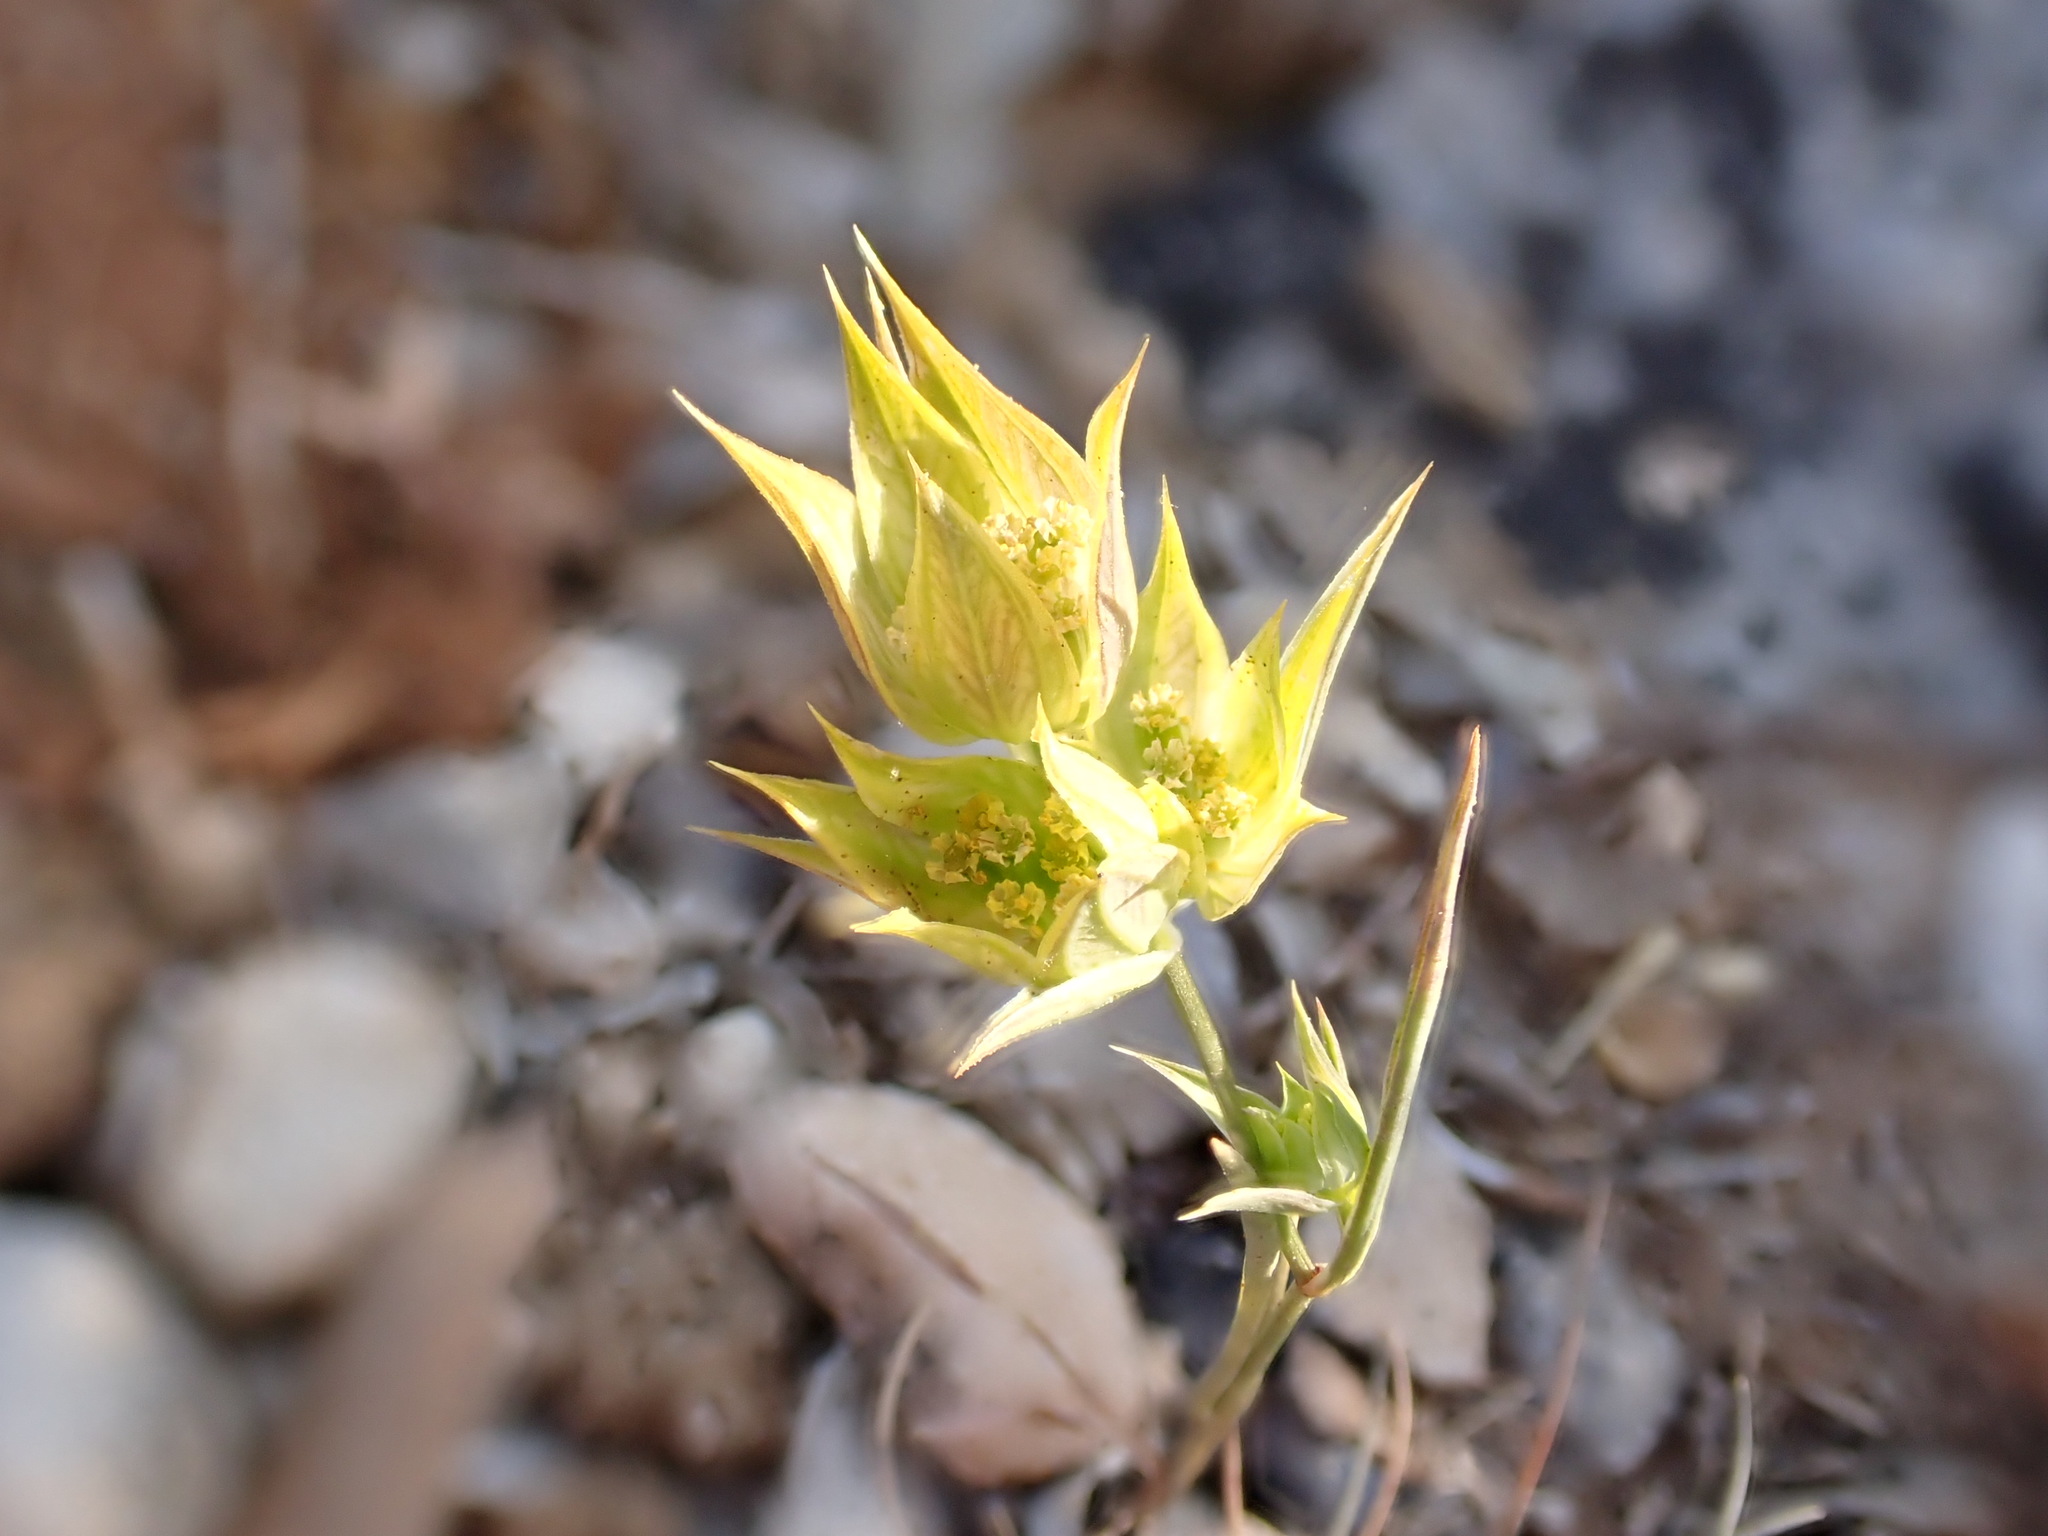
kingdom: Plantae
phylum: Tracheophyta
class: Magnoliopsida
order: Apiales
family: Apiaceae
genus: Bupleurum
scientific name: Bupleurum baldense
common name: Small hare's-ear
